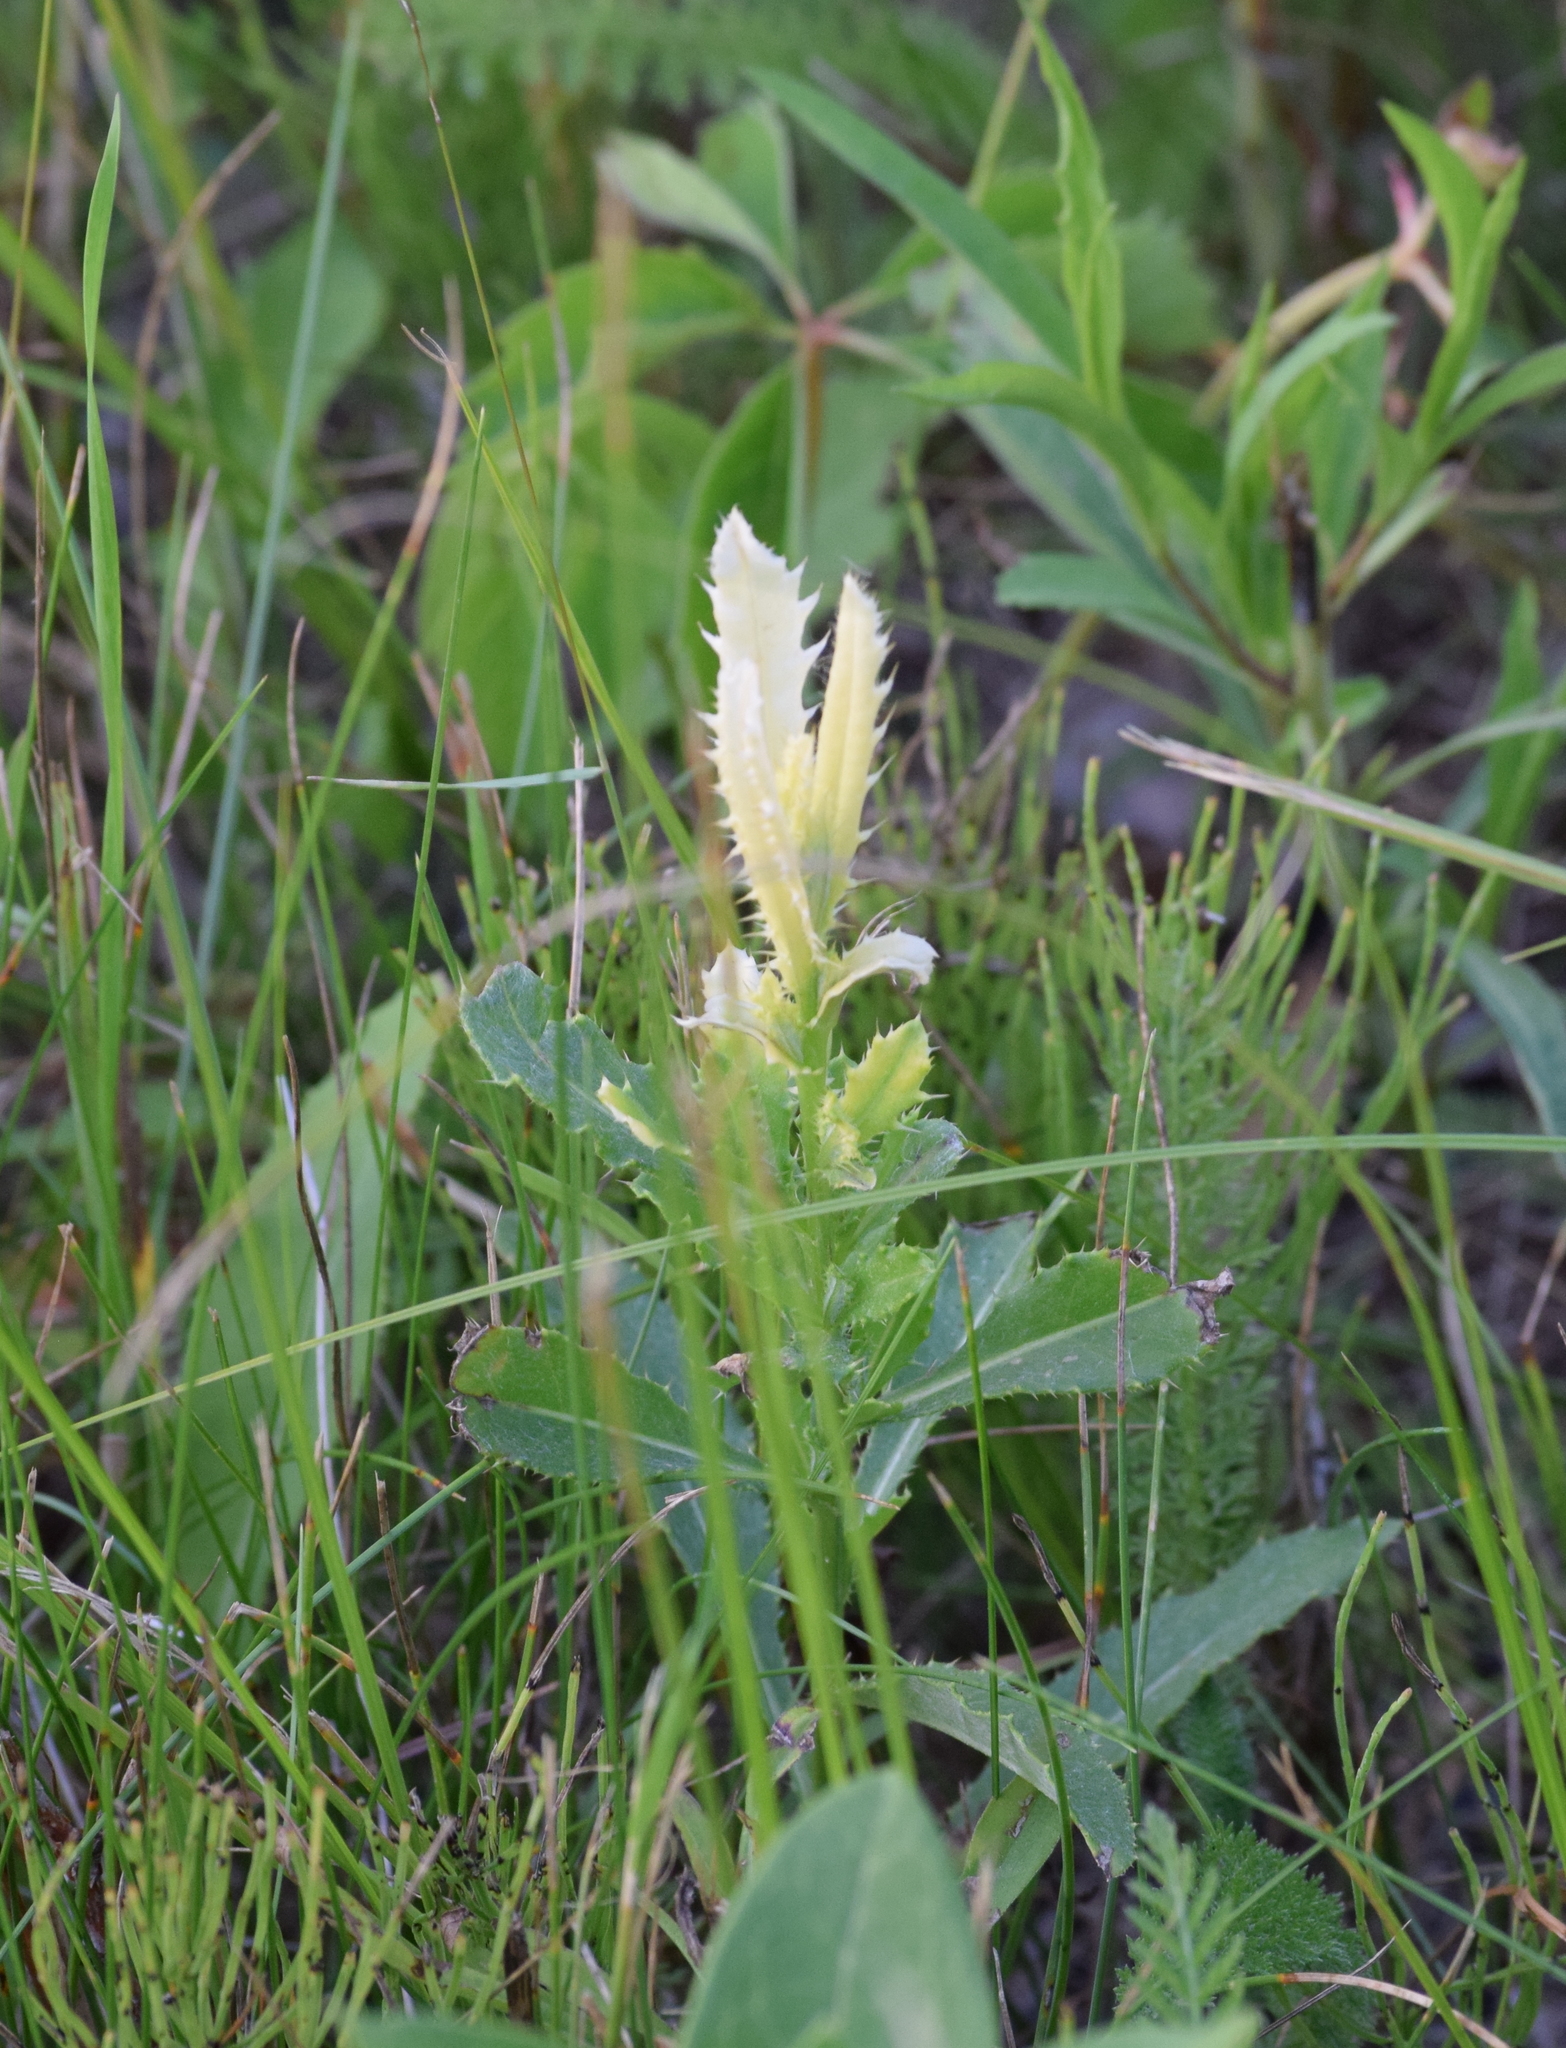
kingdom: Bacteria
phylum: Proteobacteria
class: Gammaproteobacteria
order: Pseudomonadales
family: Pseudomonadaceae
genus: Pseudomonas
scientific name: Pseudomonas syringae
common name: Bacterial speck
